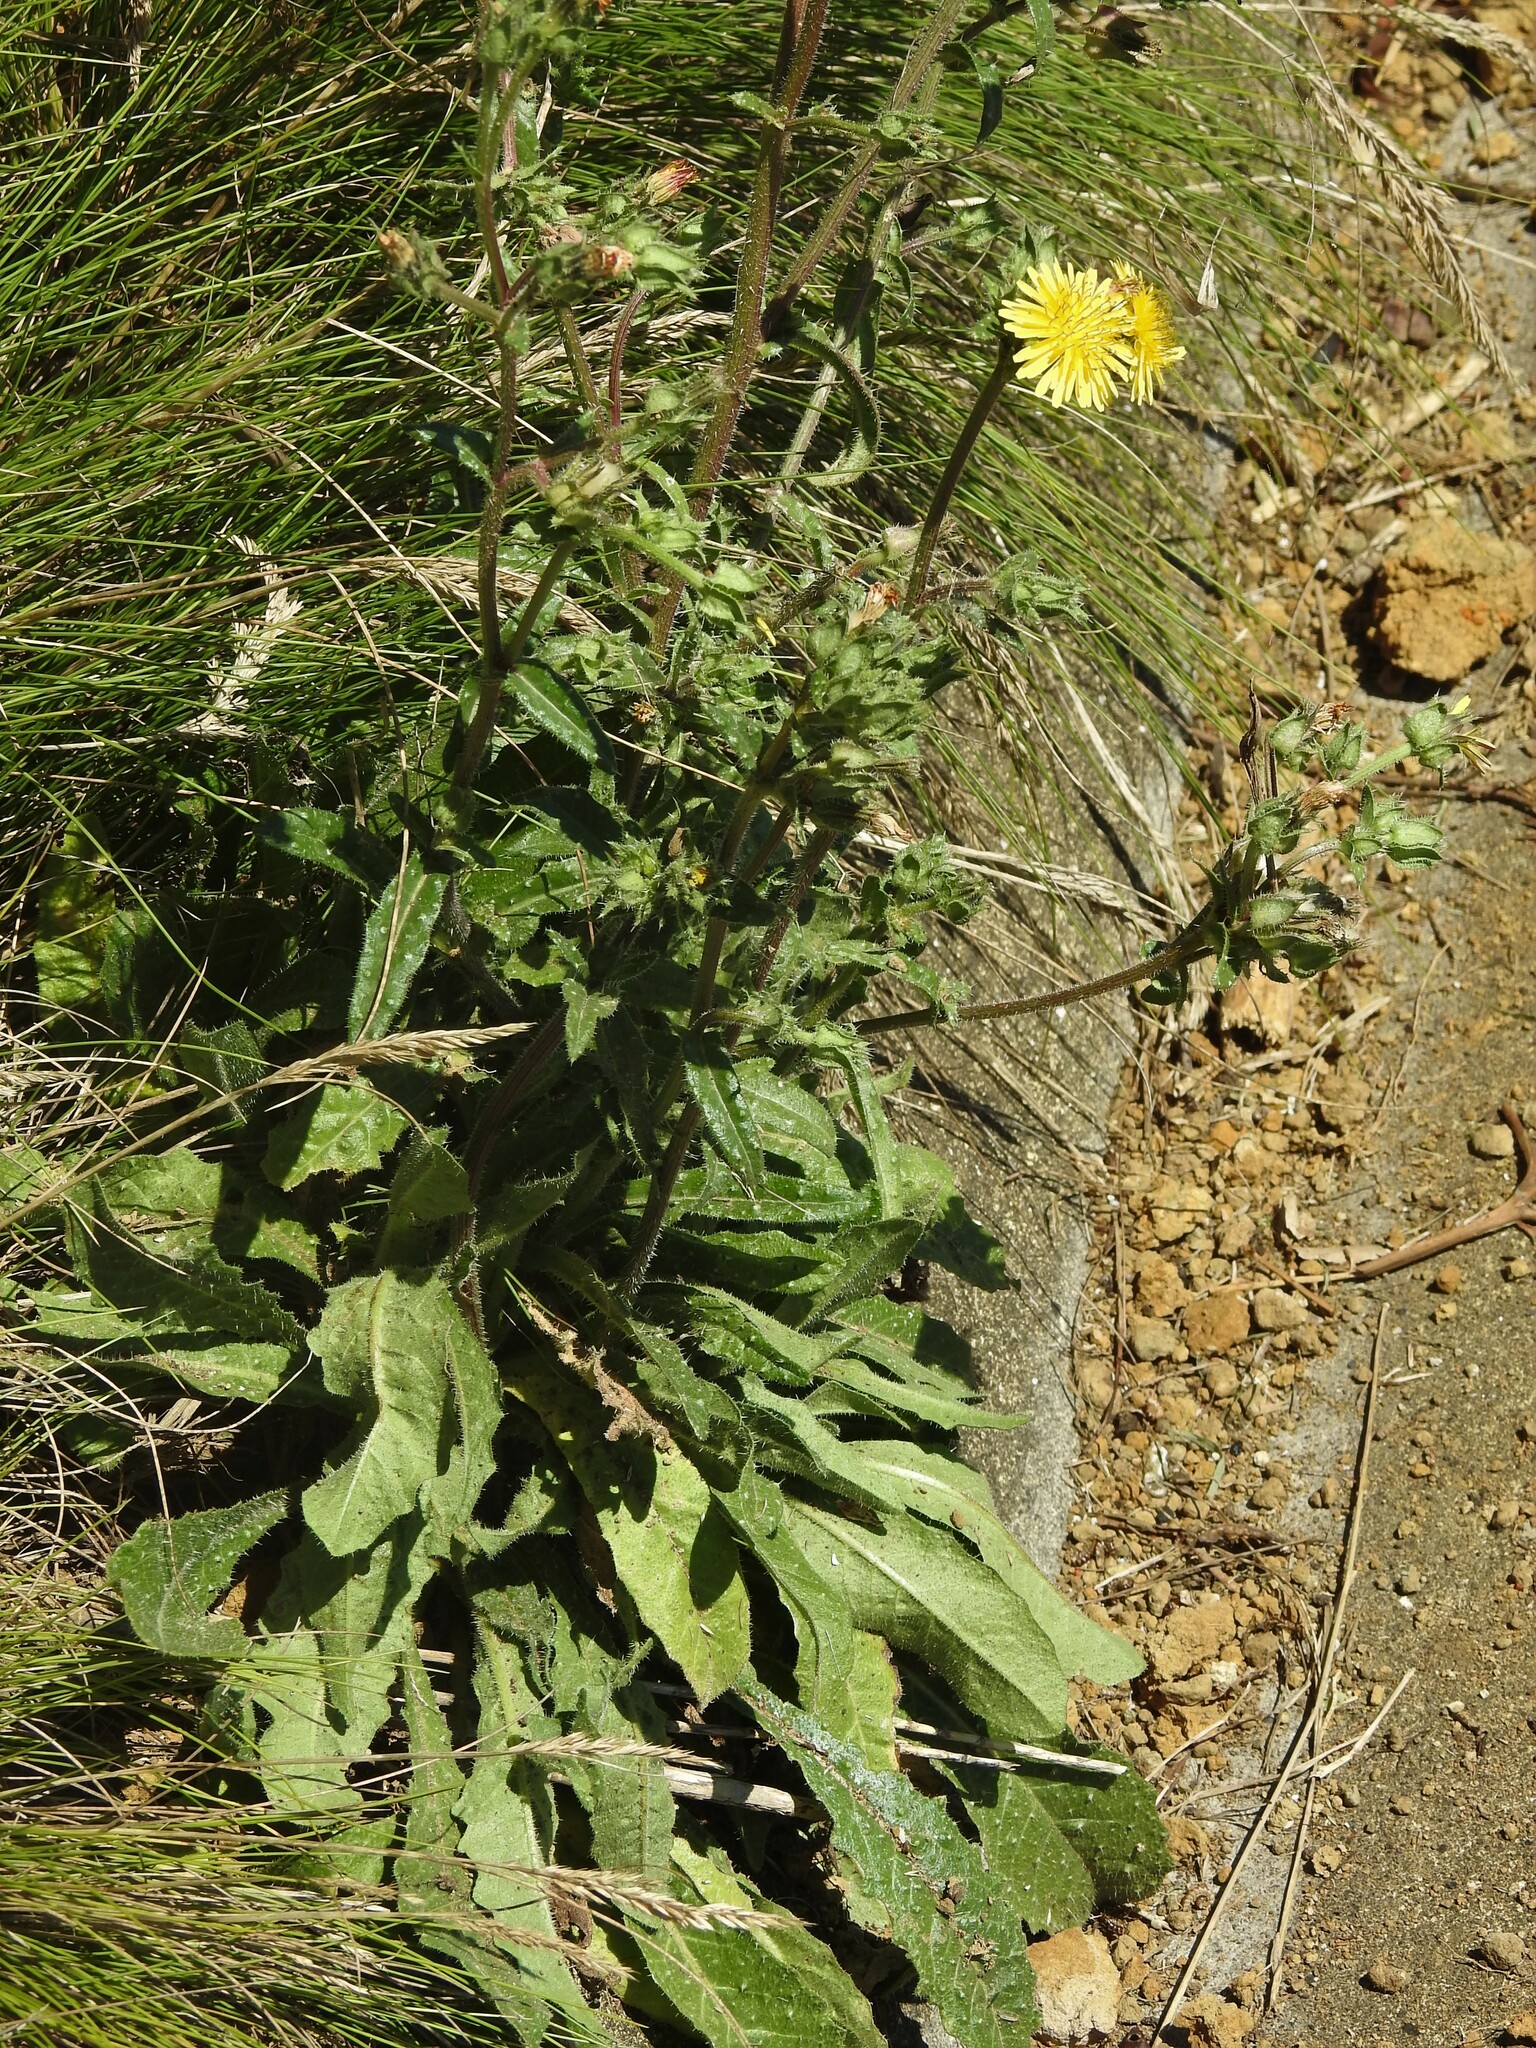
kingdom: Plantae
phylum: Tracheophyta
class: Magnoliopsida
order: Asterales
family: Asteraceae
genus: Helminthotheca
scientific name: Helminthotheca echioides
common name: Ox-tongue
